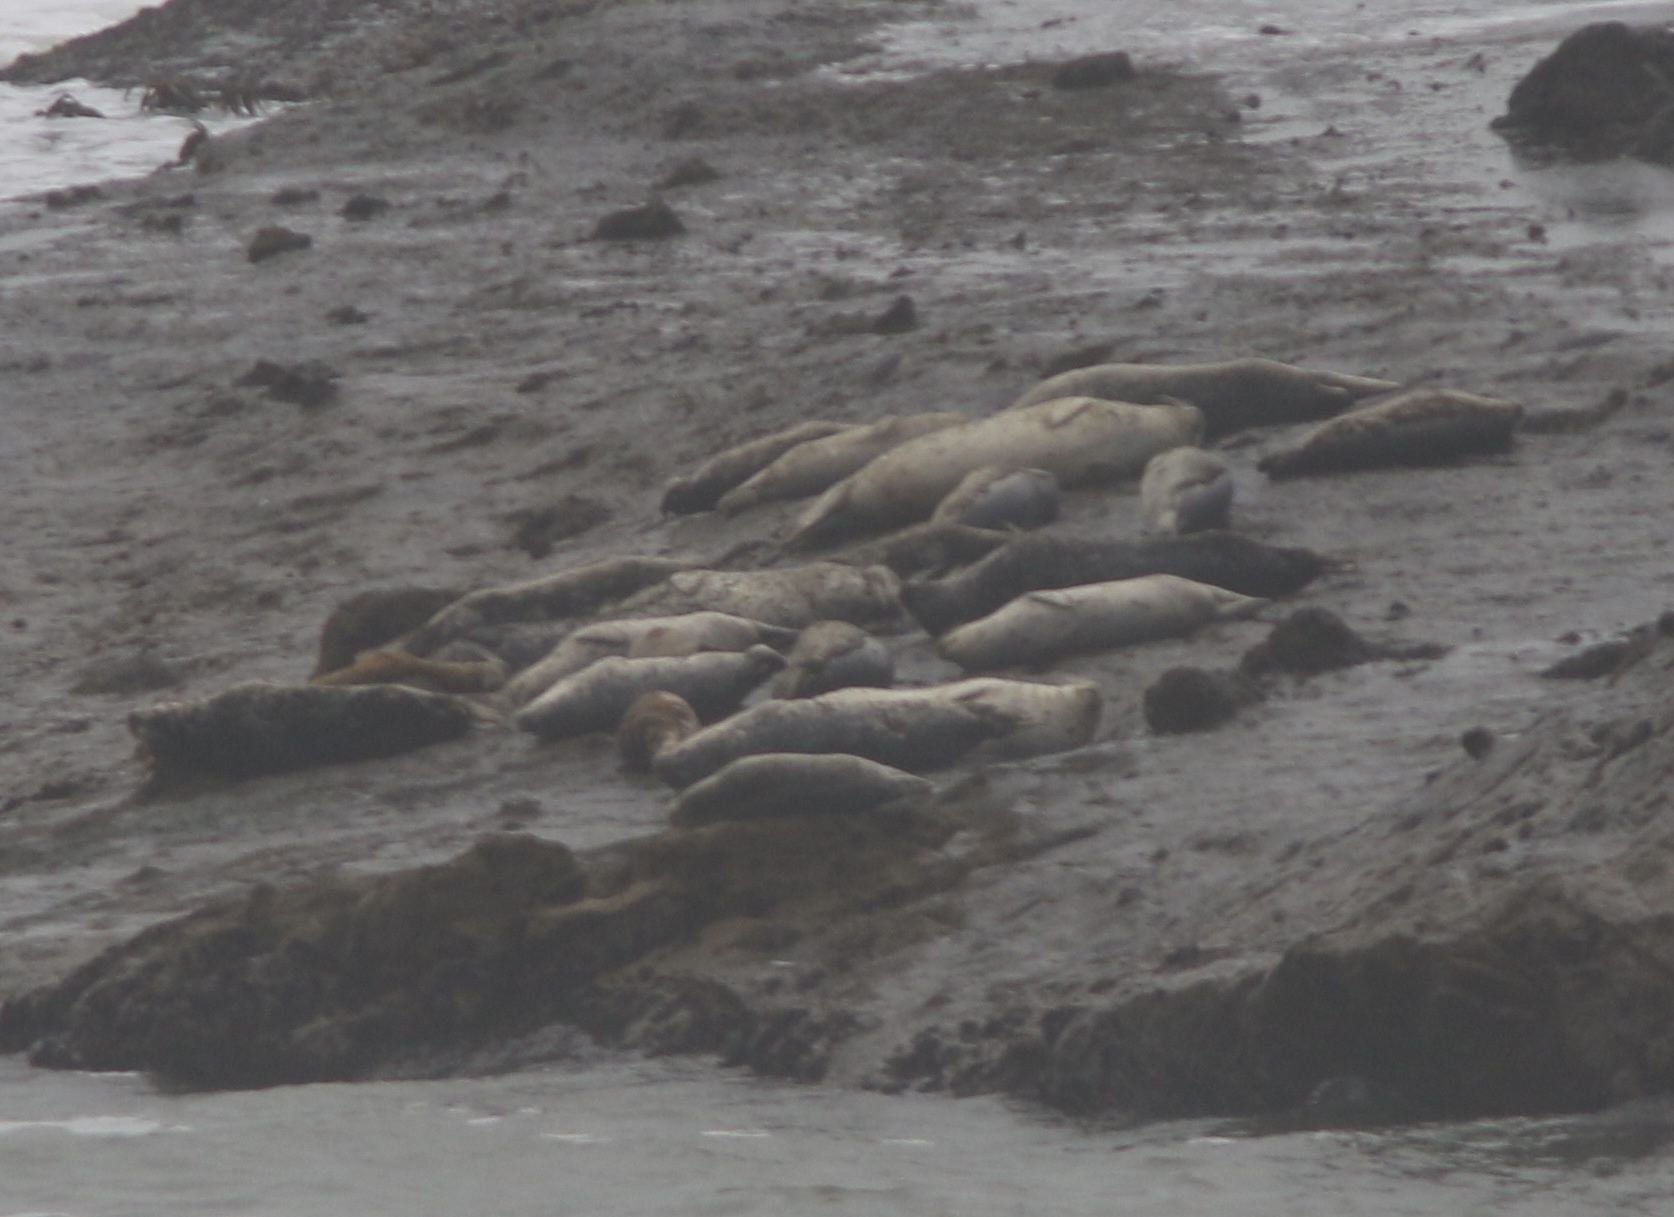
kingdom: Animalia
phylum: Chordata
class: Mammalia
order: Carnivora
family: Phocidae
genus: Phoca
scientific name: Phoca vitulina
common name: Harbor seal
